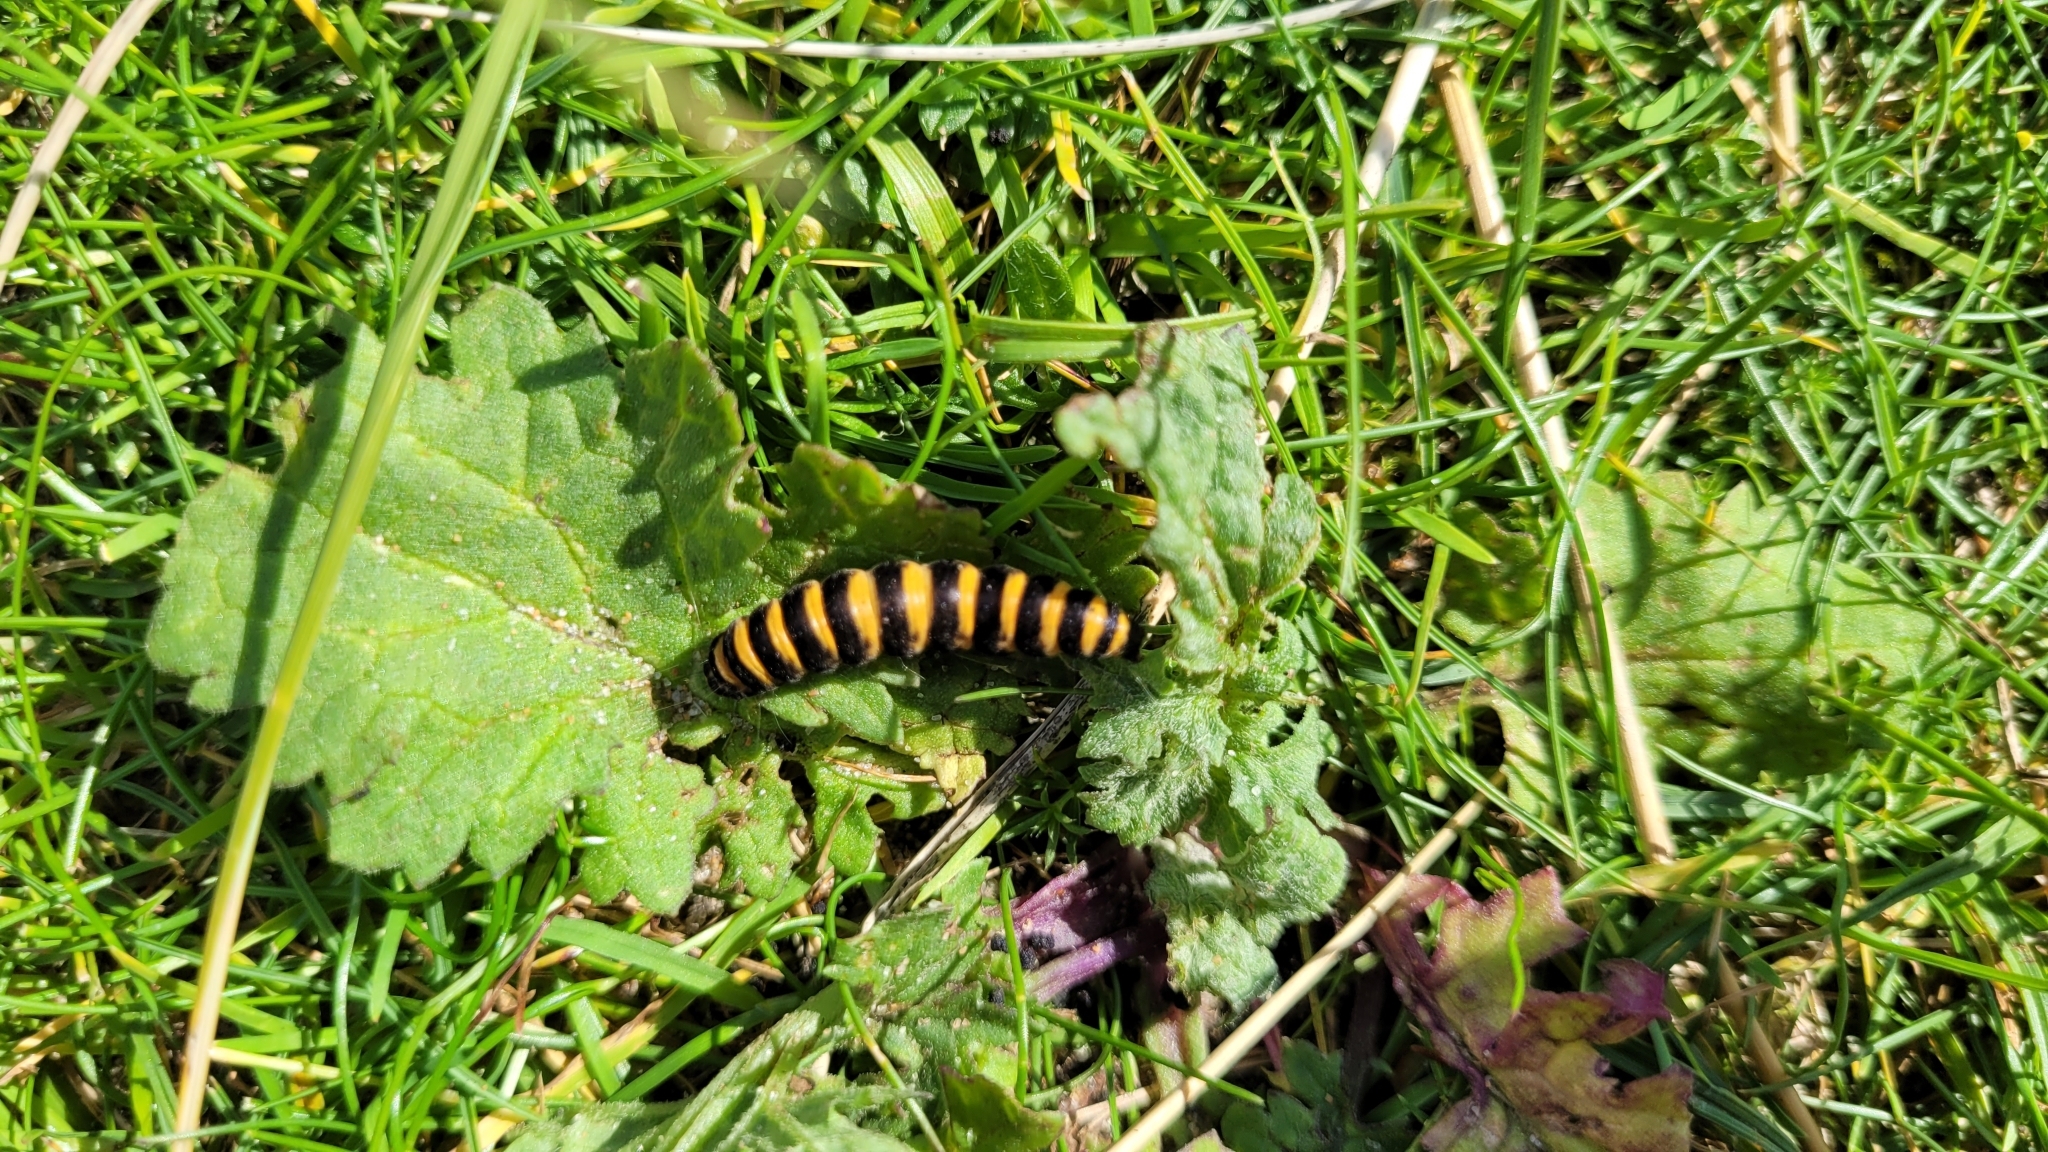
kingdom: Animalia
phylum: Arthropoda
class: Insecta
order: Lepidoptera
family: Erebidae
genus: Tyria
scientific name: Tyria jacobaeae
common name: Cinnabar
